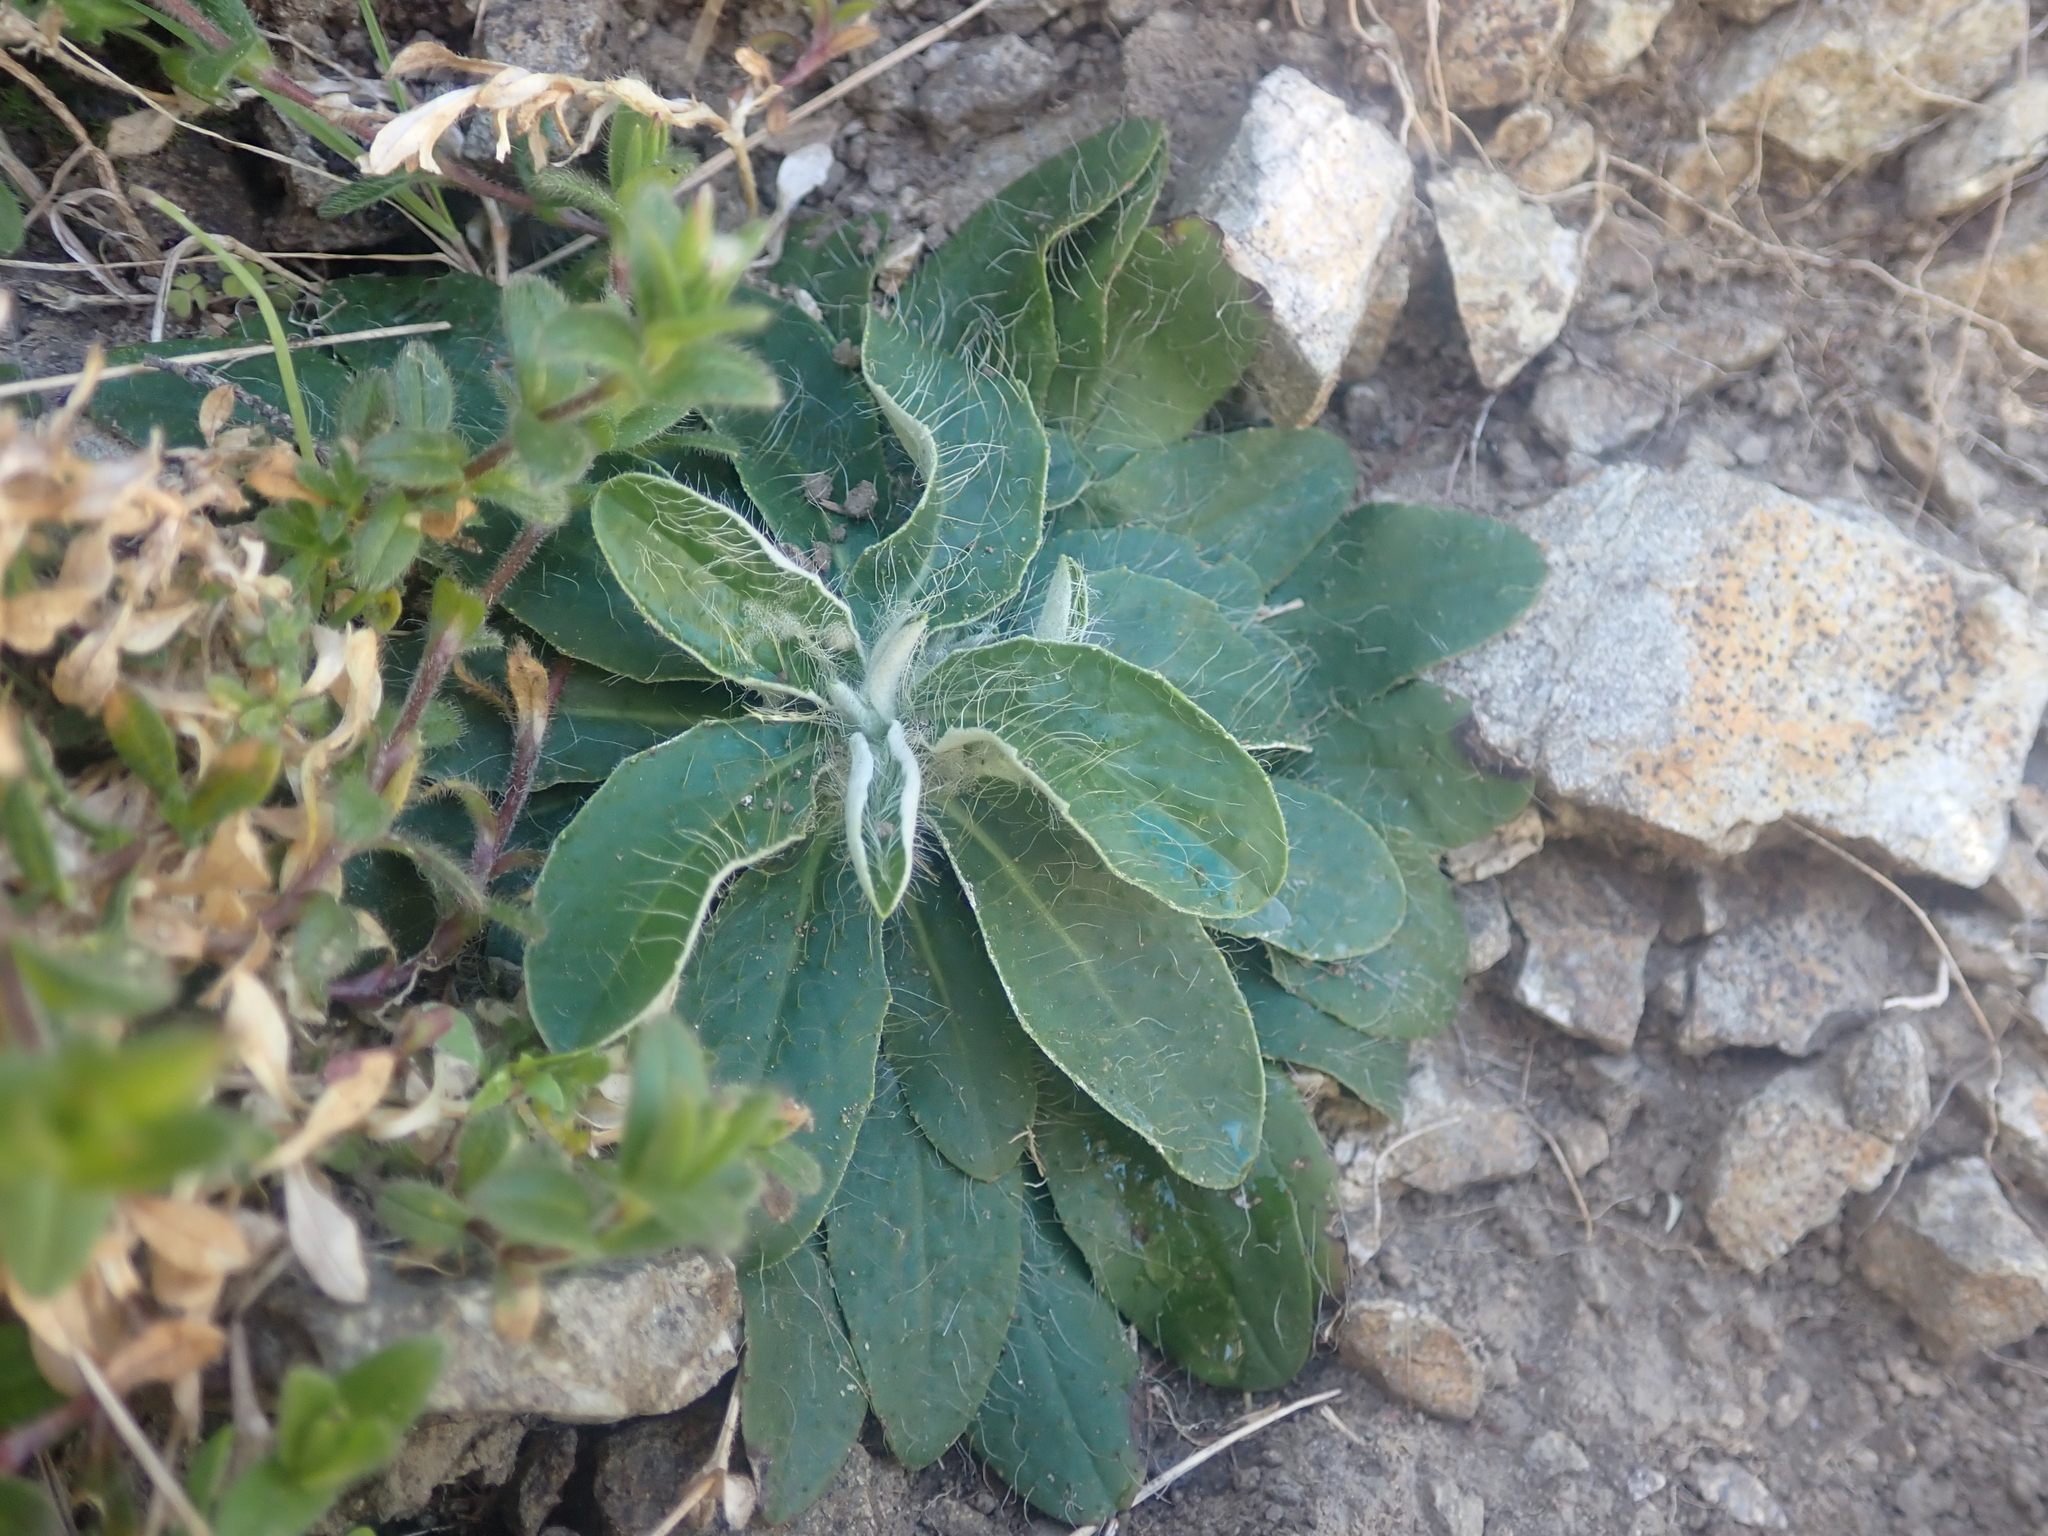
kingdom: Plantae
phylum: Tracheophyta
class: Magnoliopsida
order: Asterales
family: Asteraceae
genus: Pilosella
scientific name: Pilosella officinarum
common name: Mouse-ear hawkweed
